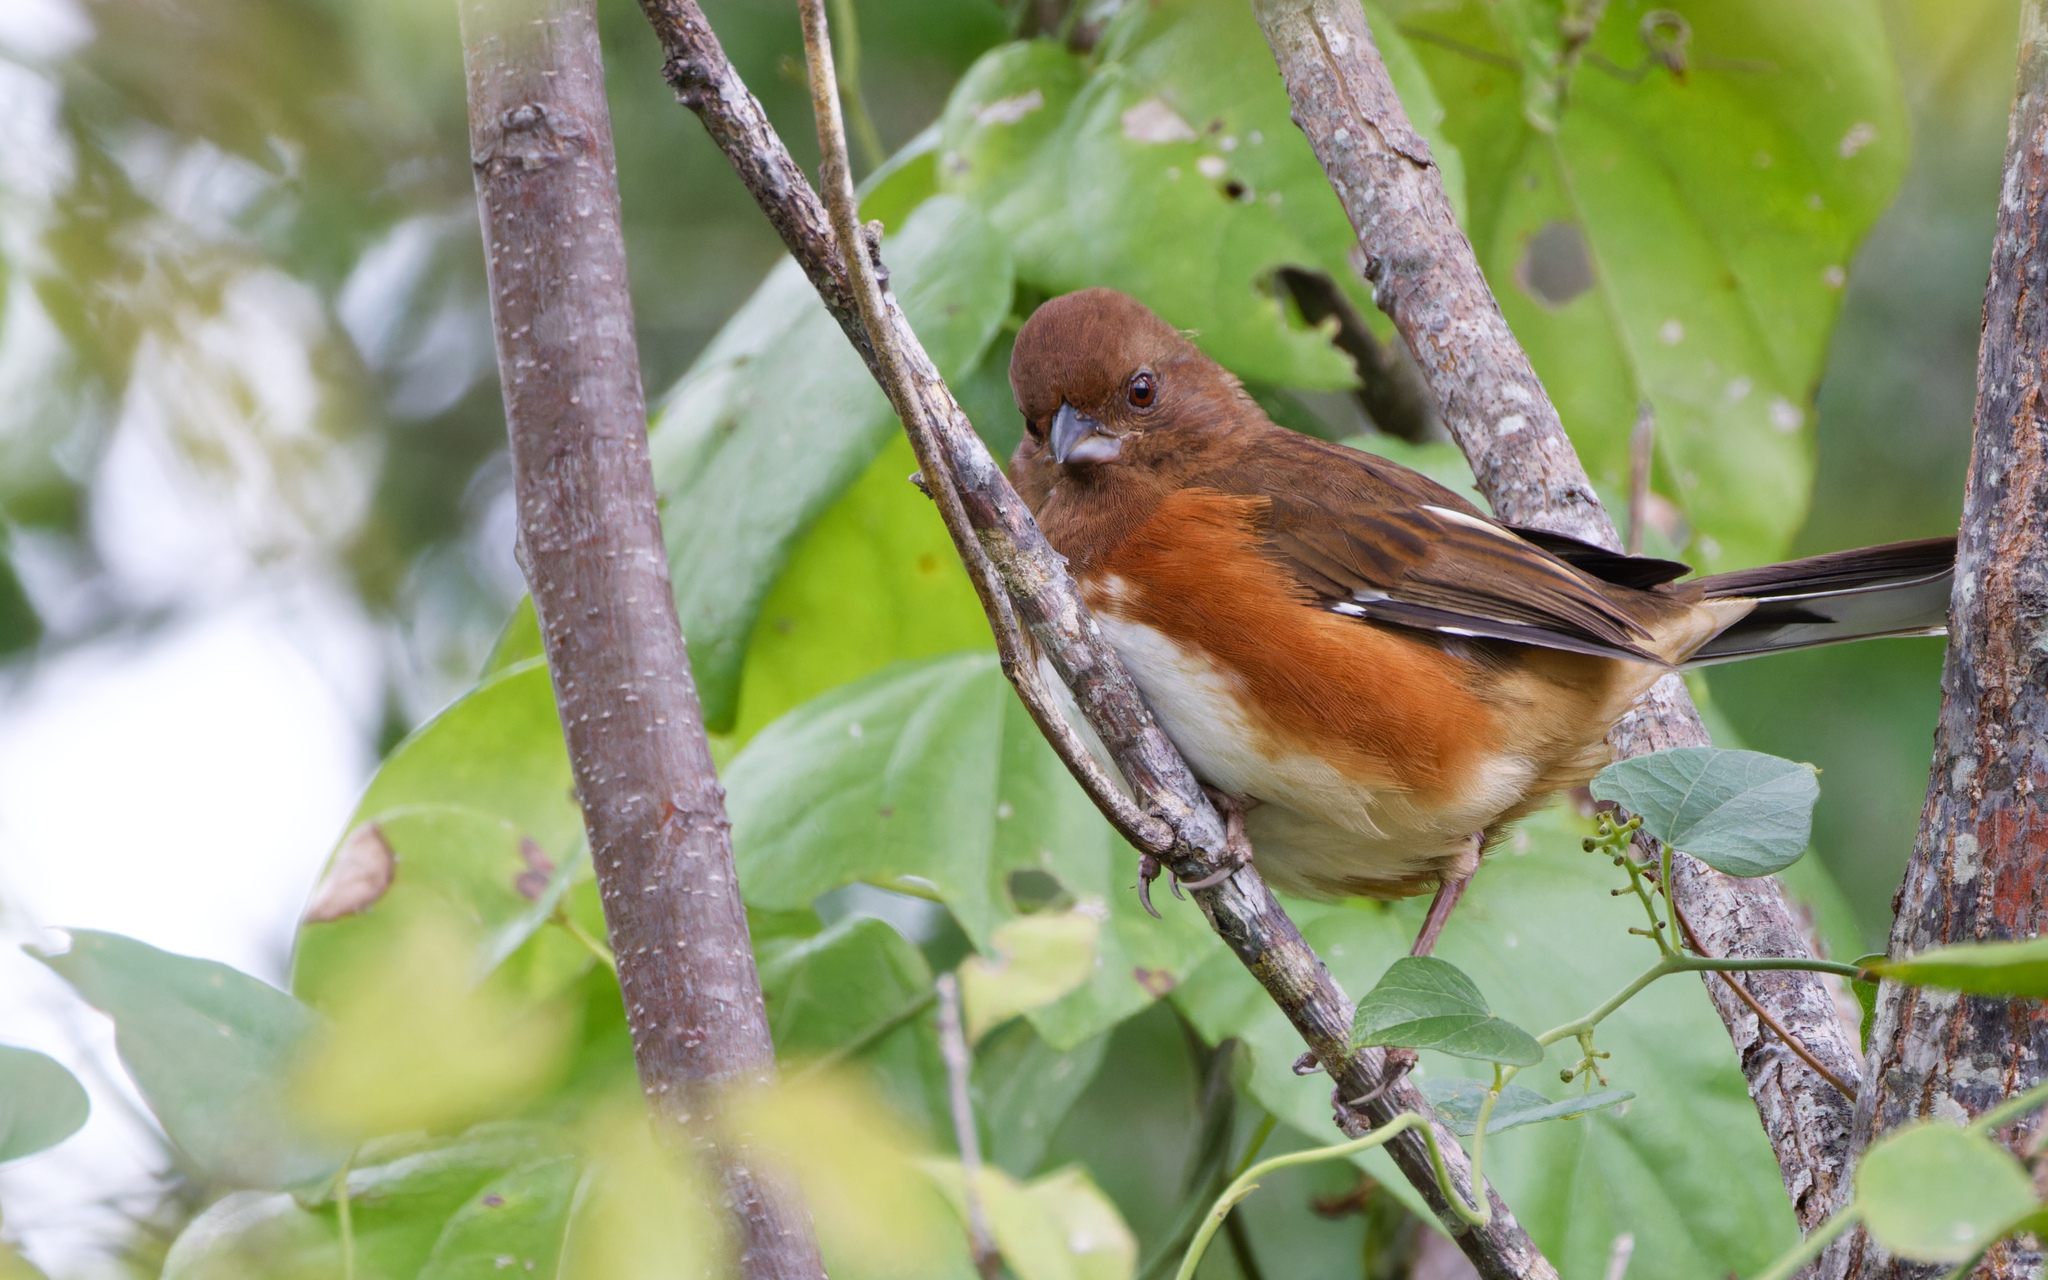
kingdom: Animalia
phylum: Chordata
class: Aves
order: Passeriformes
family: Passerellidae
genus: Pipilo
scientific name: Pipilo erythrophthalmus
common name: Eastern towhee
